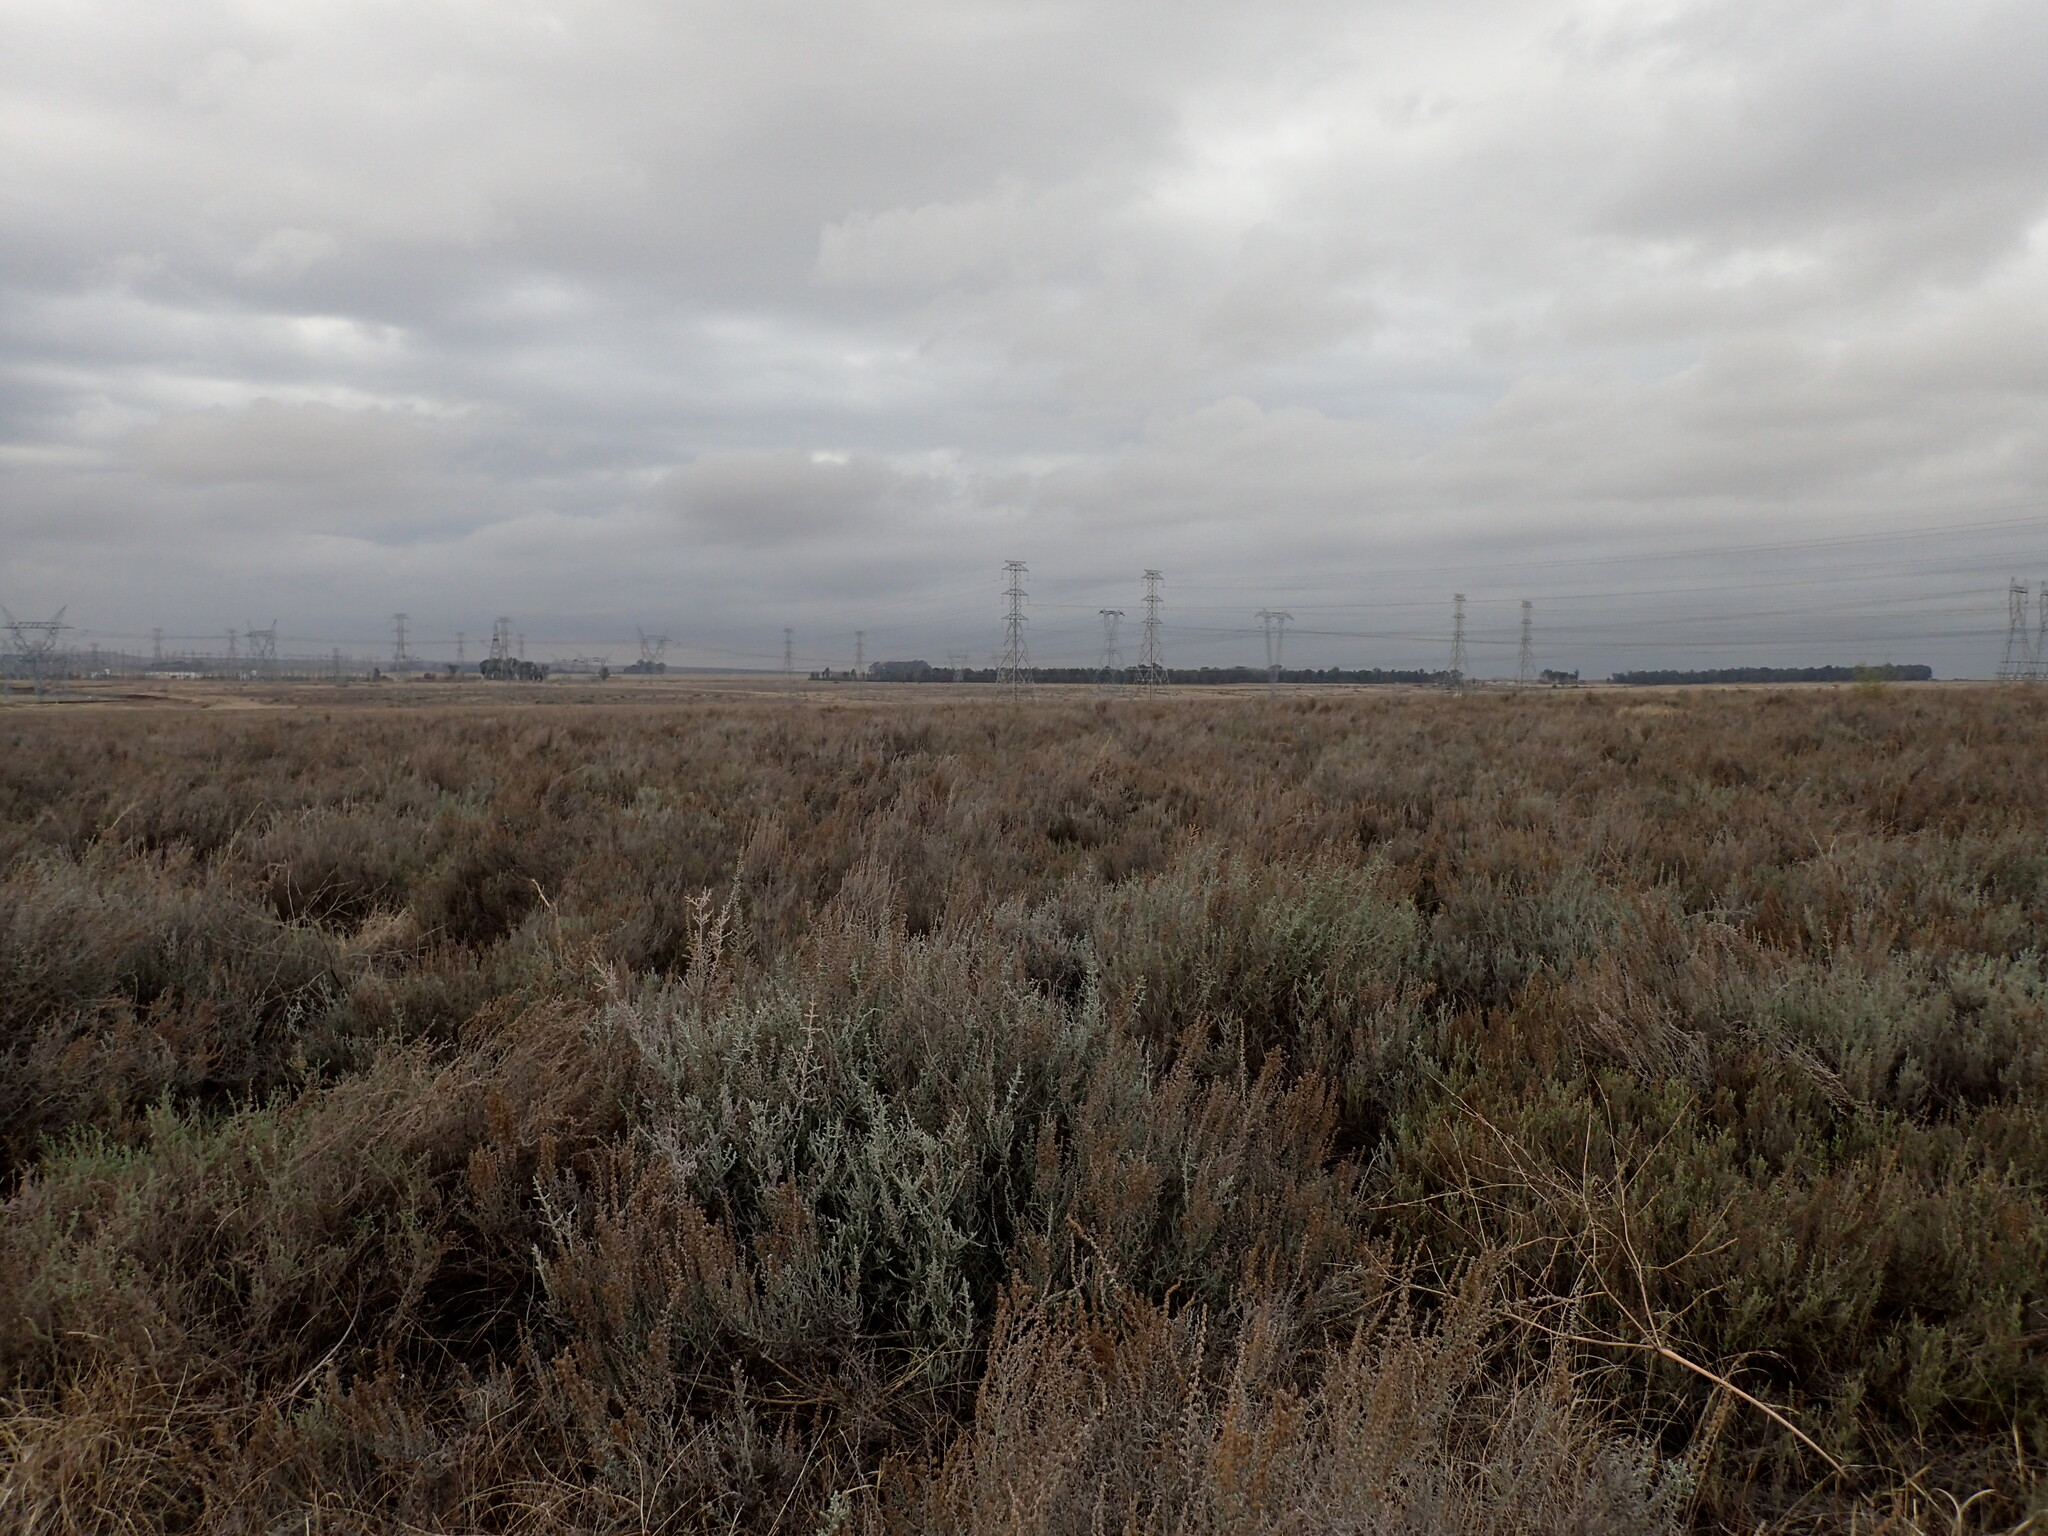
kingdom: Plantae
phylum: Tracheophyta
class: Magnoliopsida
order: Asterales
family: Asteraceae
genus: Seriphium
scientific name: Seriphium
